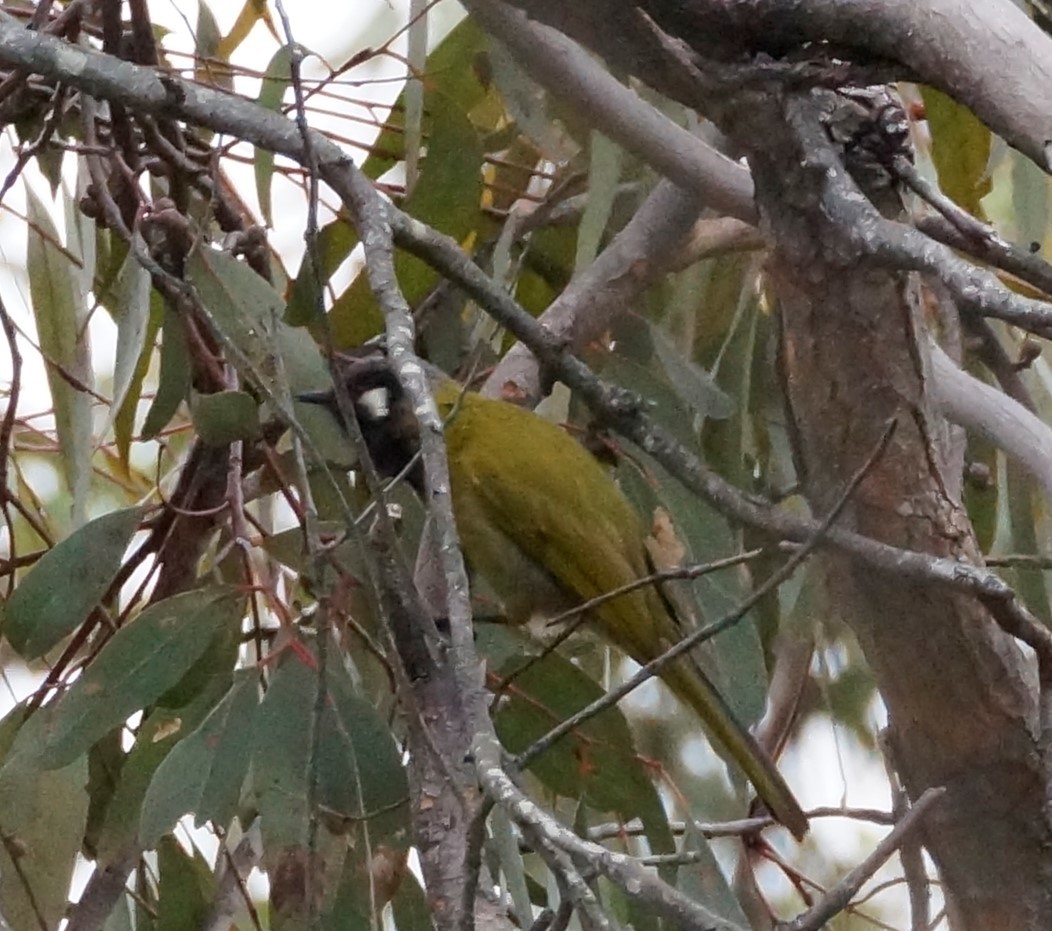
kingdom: Animalia
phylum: Chordata
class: Aves
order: Passeriformes
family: Meliphagidae
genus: Nesoptilotis
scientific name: Nesoptilotis leucotis
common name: White-eared honeyeater
